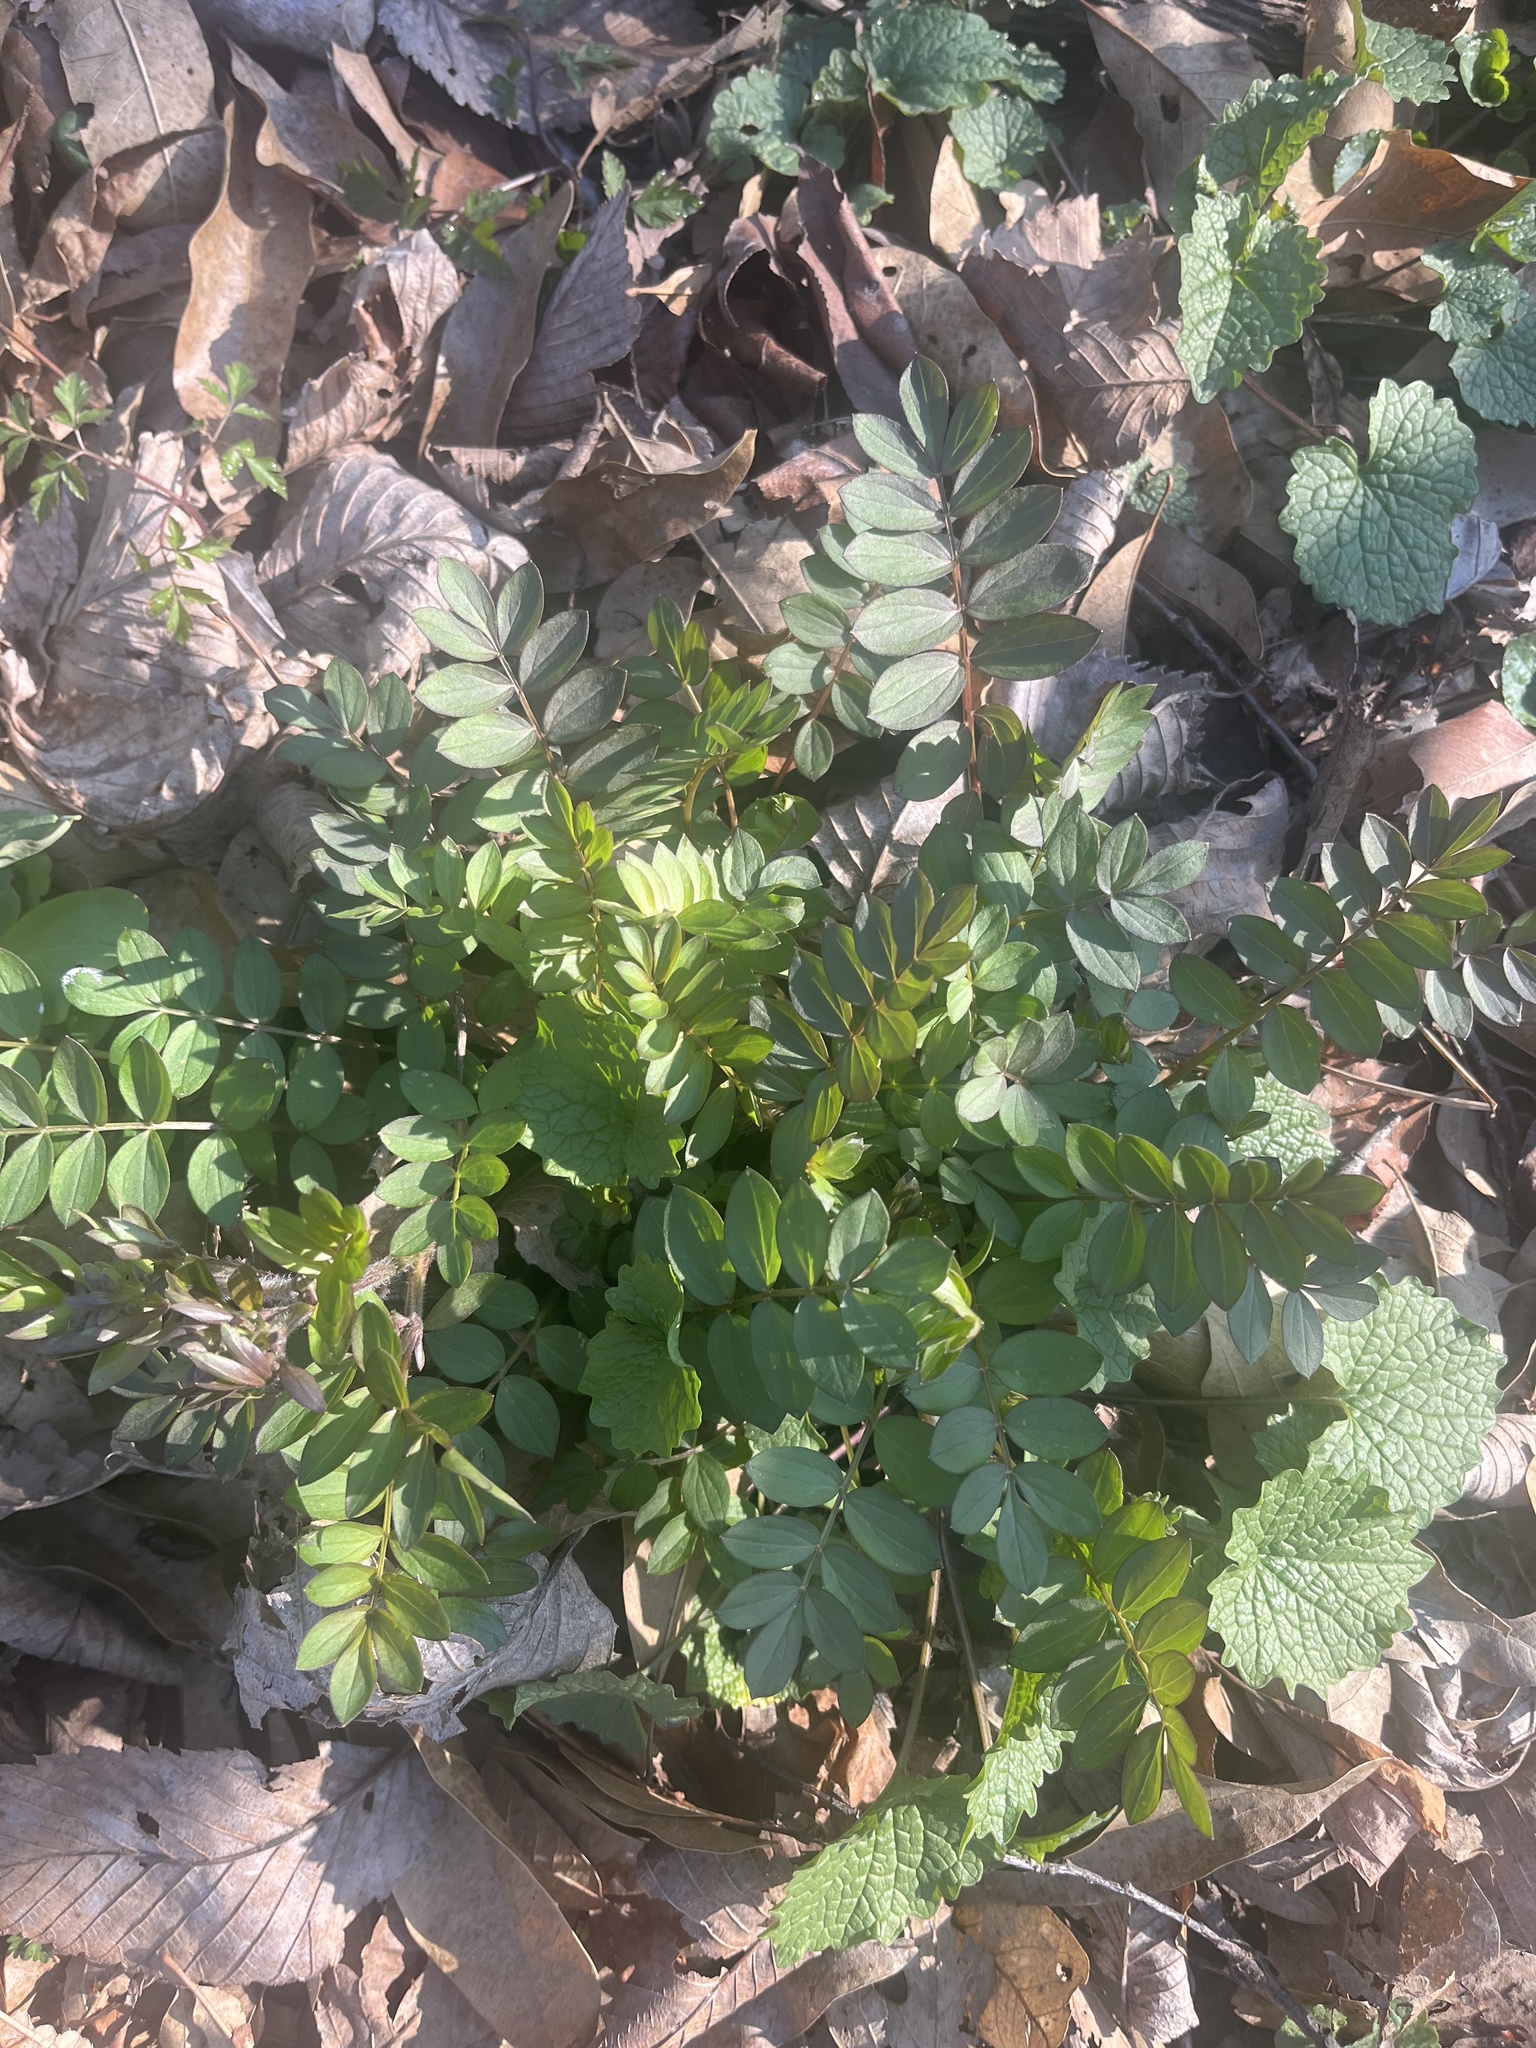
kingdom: Plantae
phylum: Tracheophyta
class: Magnoliopsida
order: Ericales
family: Polemoniaceae
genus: Polemonium
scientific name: Polemonium reptans
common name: Creeping jacob's-ladder
